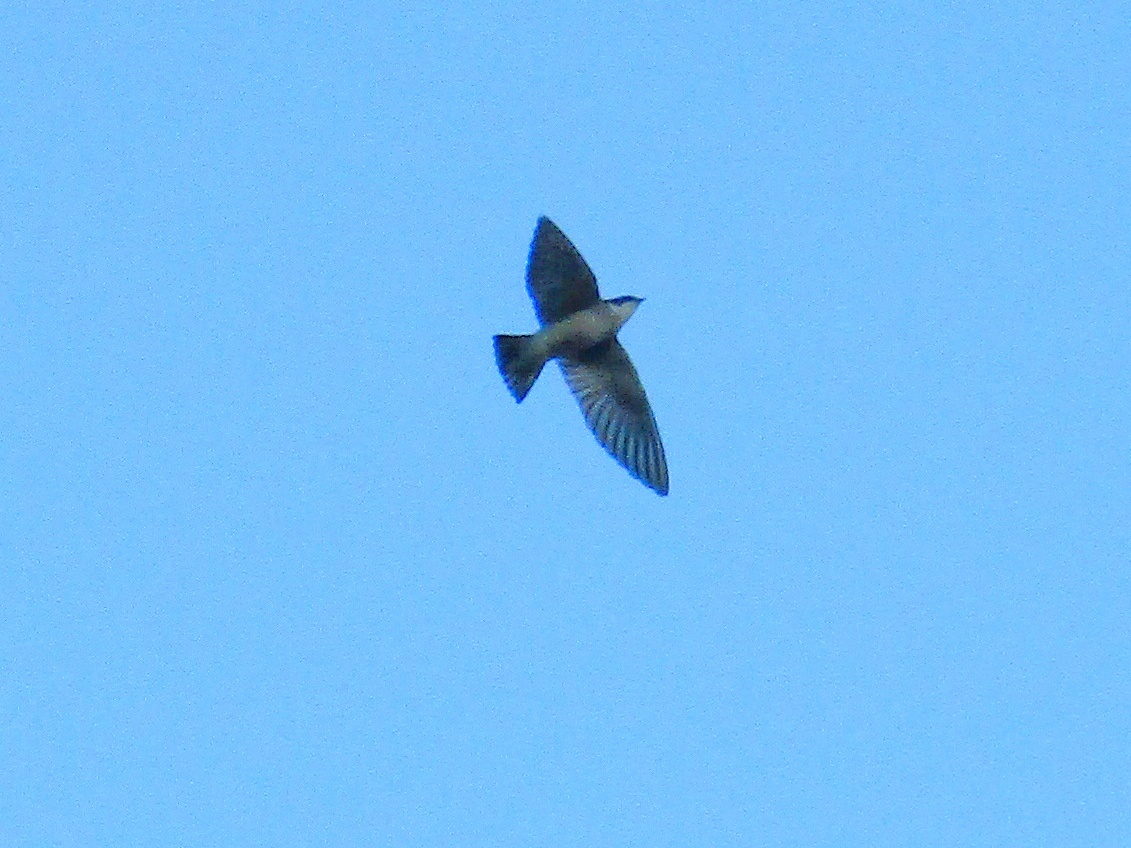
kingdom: Animalia
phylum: Chordata
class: Aves
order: Passeriformes
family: Hirundinidae
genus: Tachycineta
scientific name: Tachycineta leucopyga
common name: Chilean swallow
